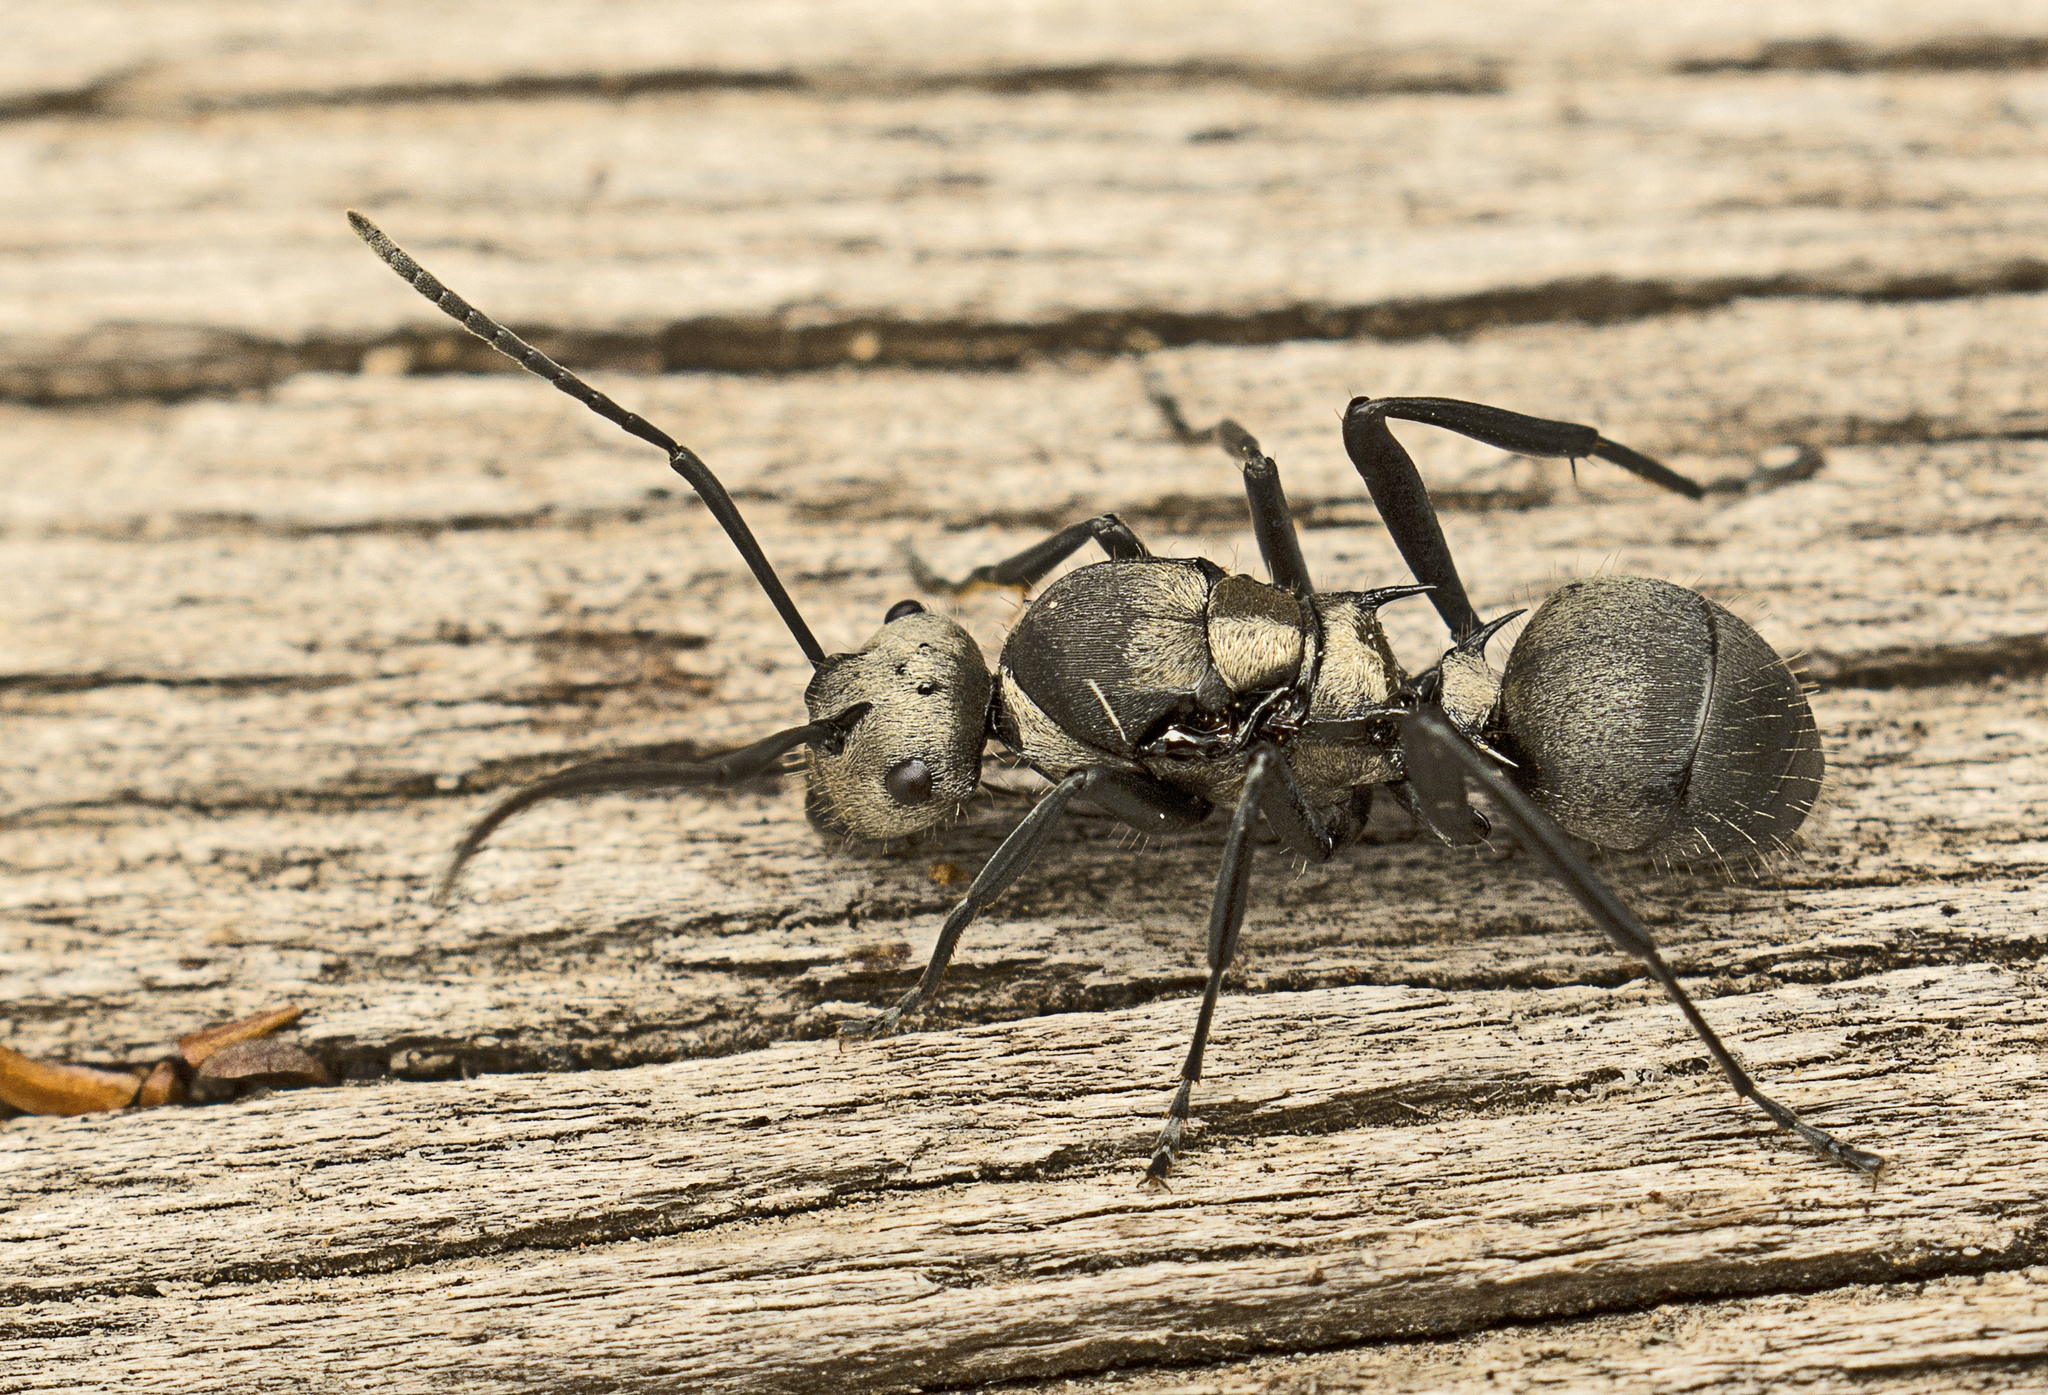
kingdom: Animalia
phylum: Arthropoda
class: Insecta
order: Hymenoptera
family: Formicidae
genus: Polyrhachis
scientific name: Polyrhachis daemeli
